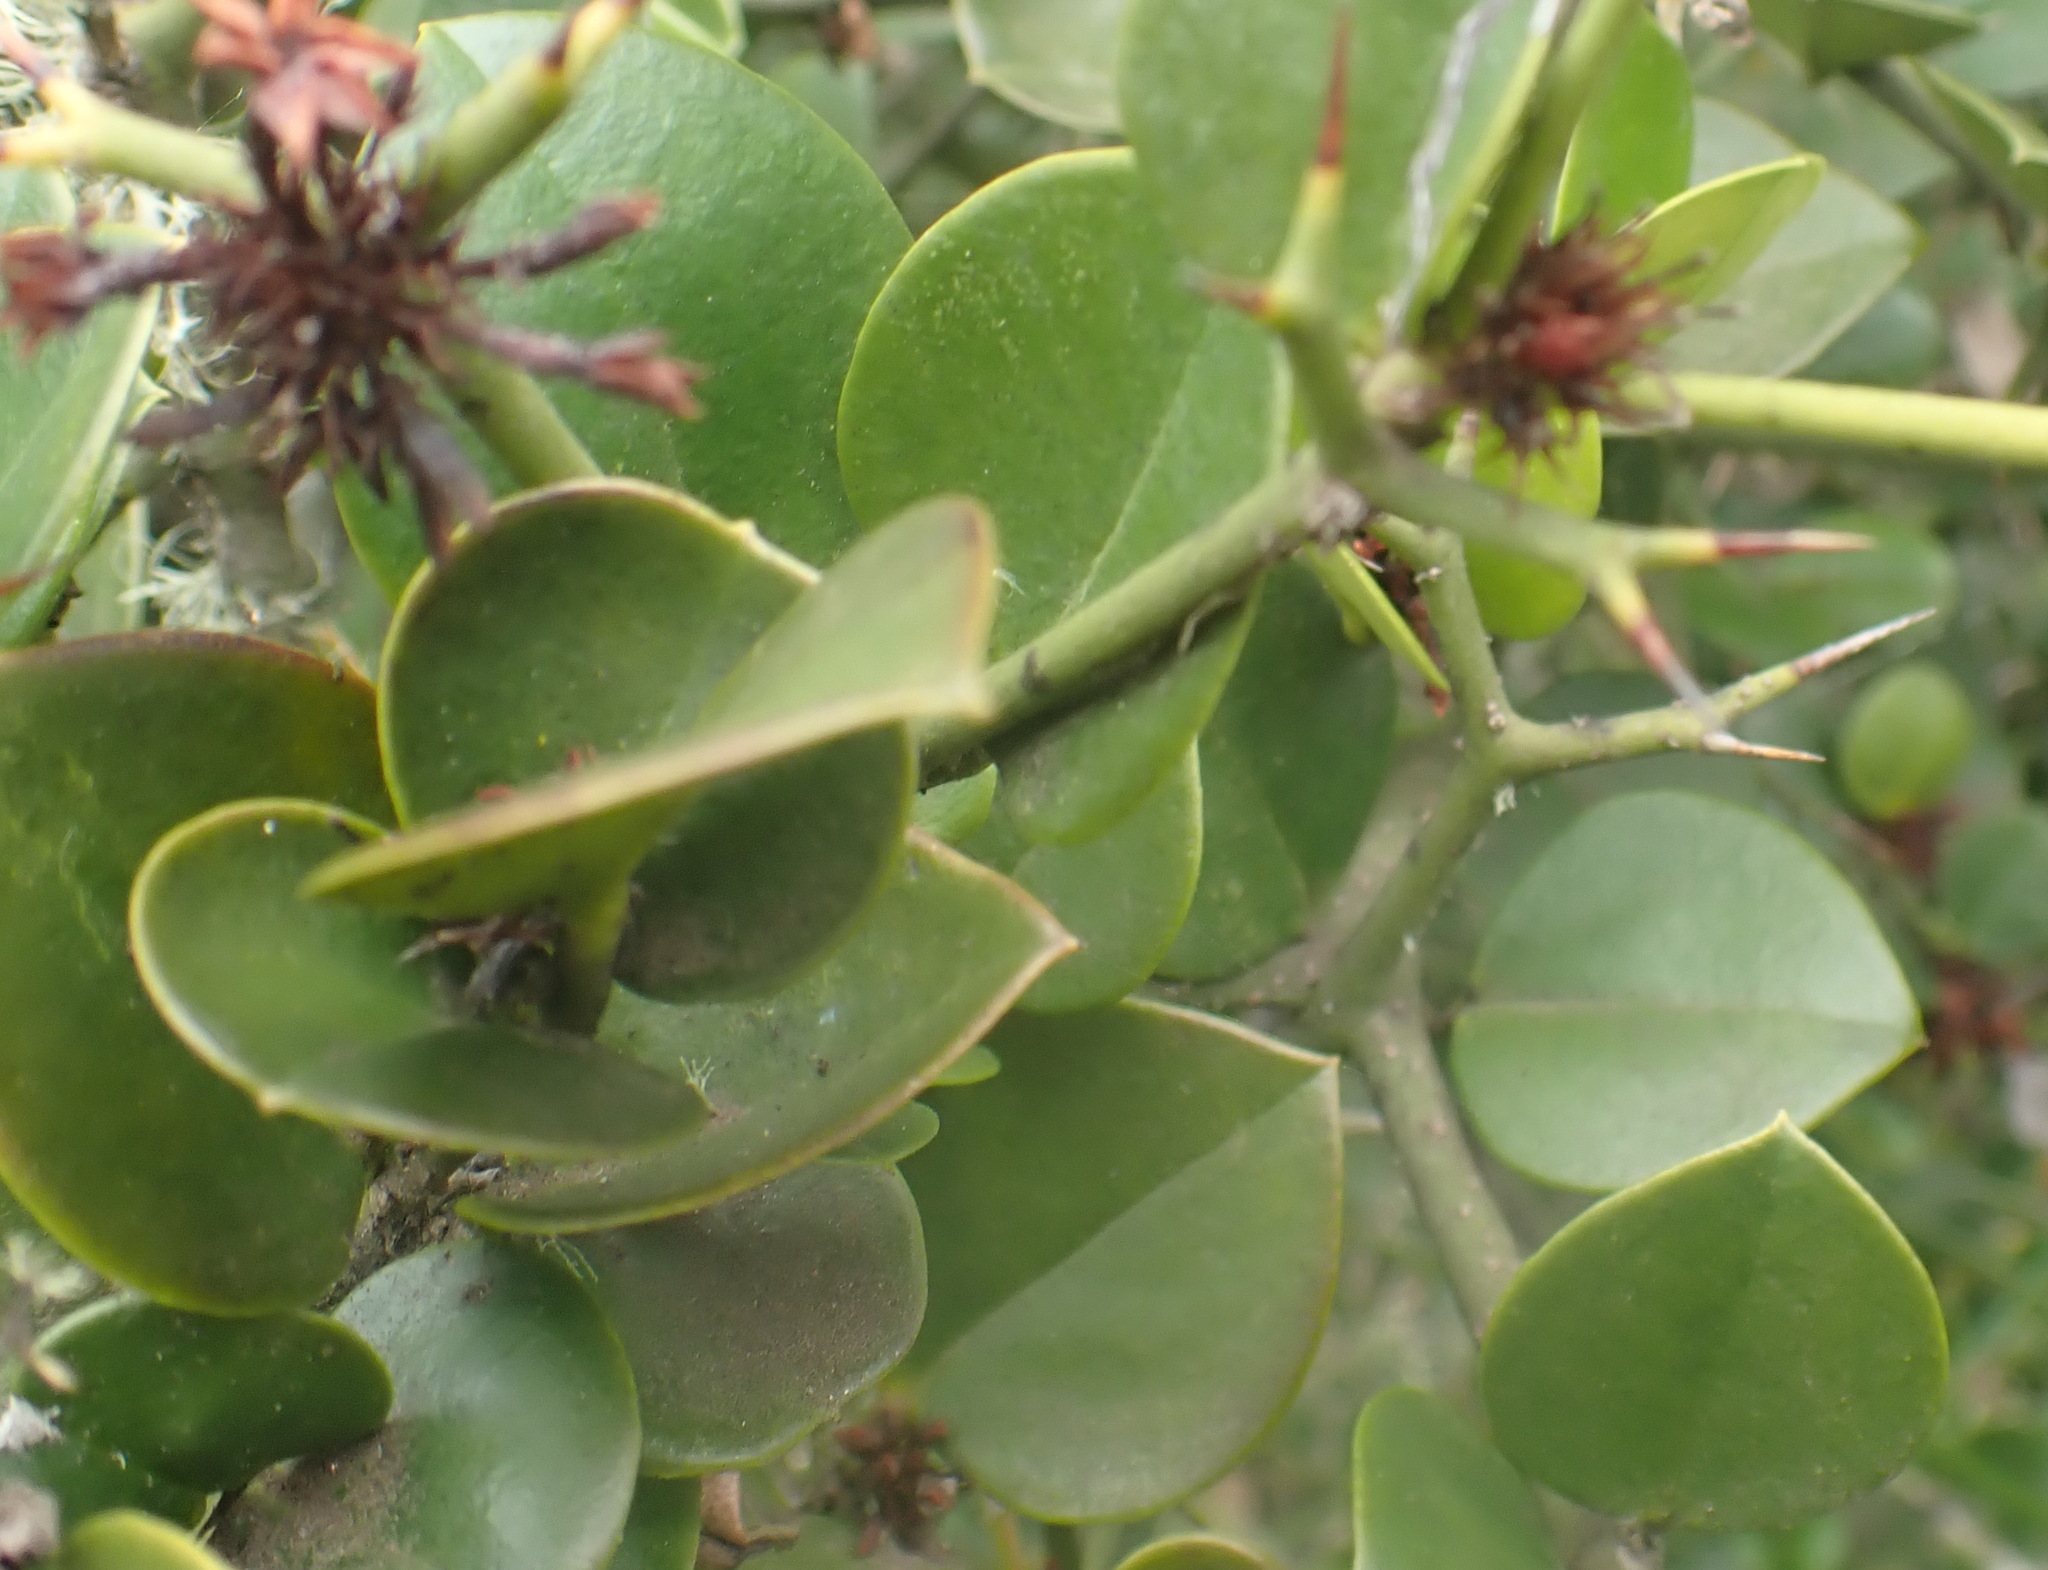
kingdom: Plantae
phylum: Tracheophyta
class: Magnoliopsida
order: Gentianales
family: Apocynaceae
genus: Carissa
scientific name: Carissa bispinosa
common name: Forest num-num
